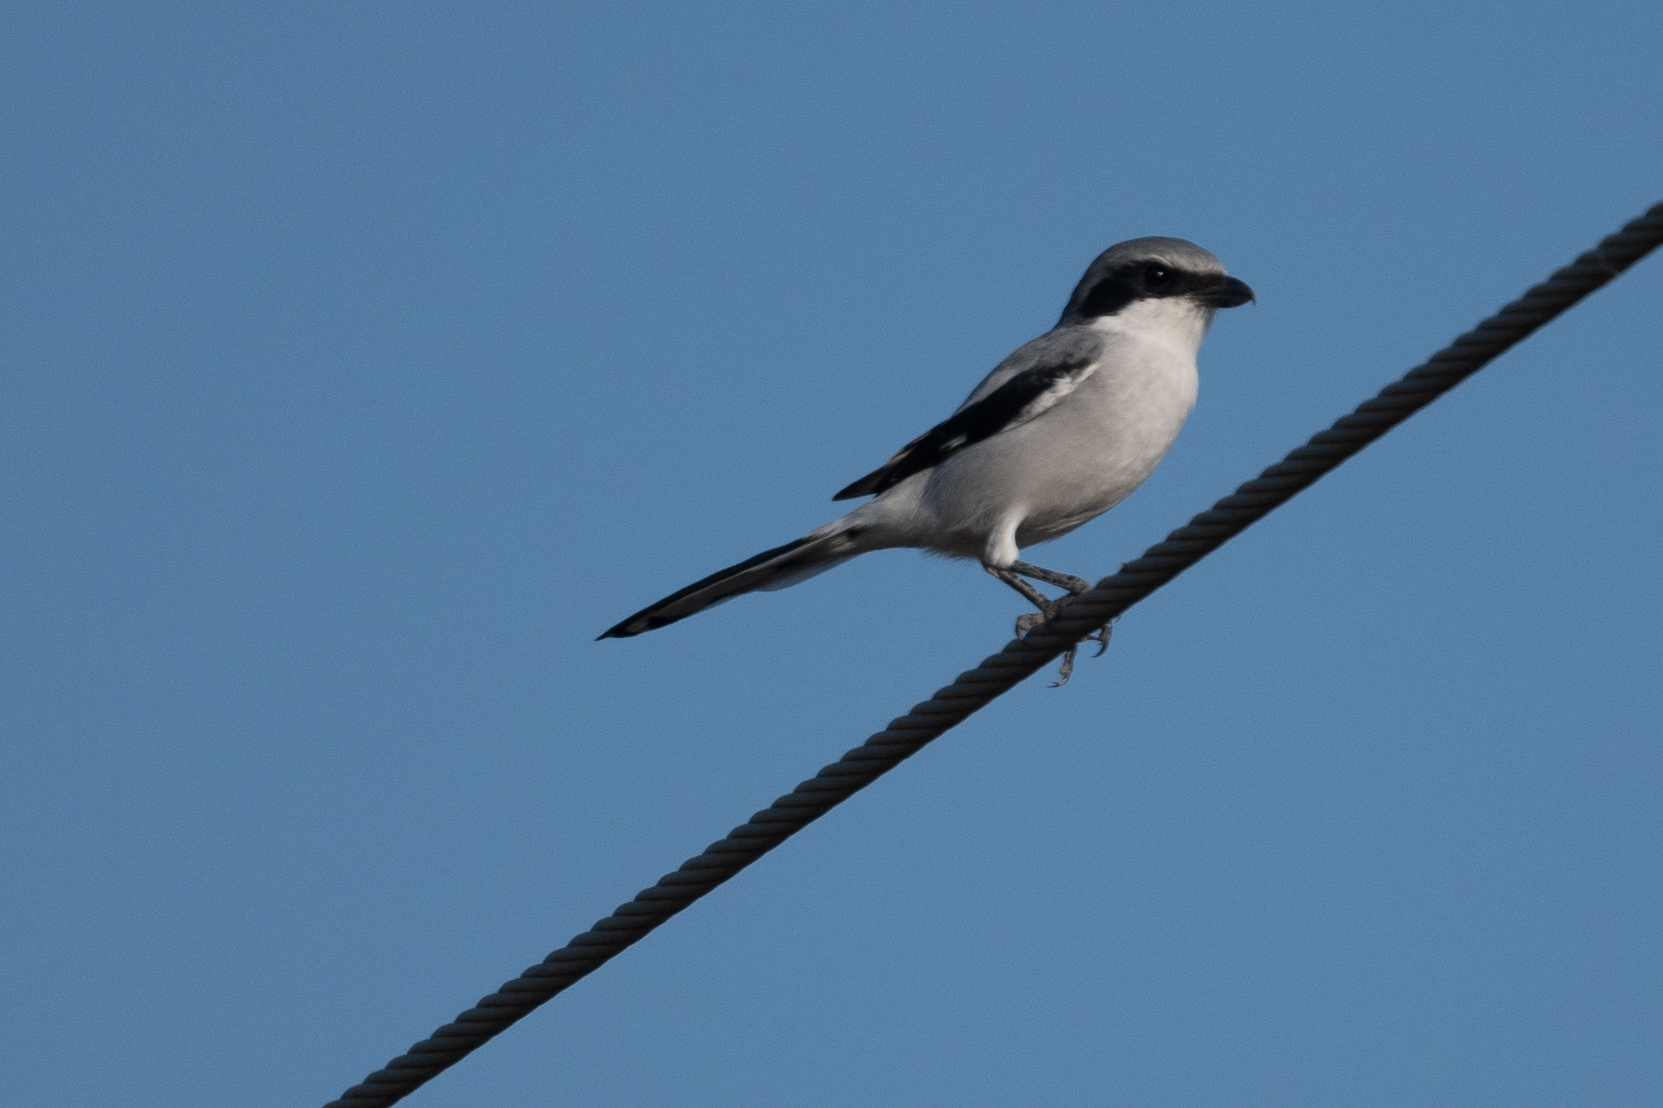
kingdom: Animalia
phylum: Chordata
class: Aves
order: Passeriformes
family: Laniidae
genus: Lanius
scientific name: Lanius ludovicianus
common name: Loggerhead shrike
